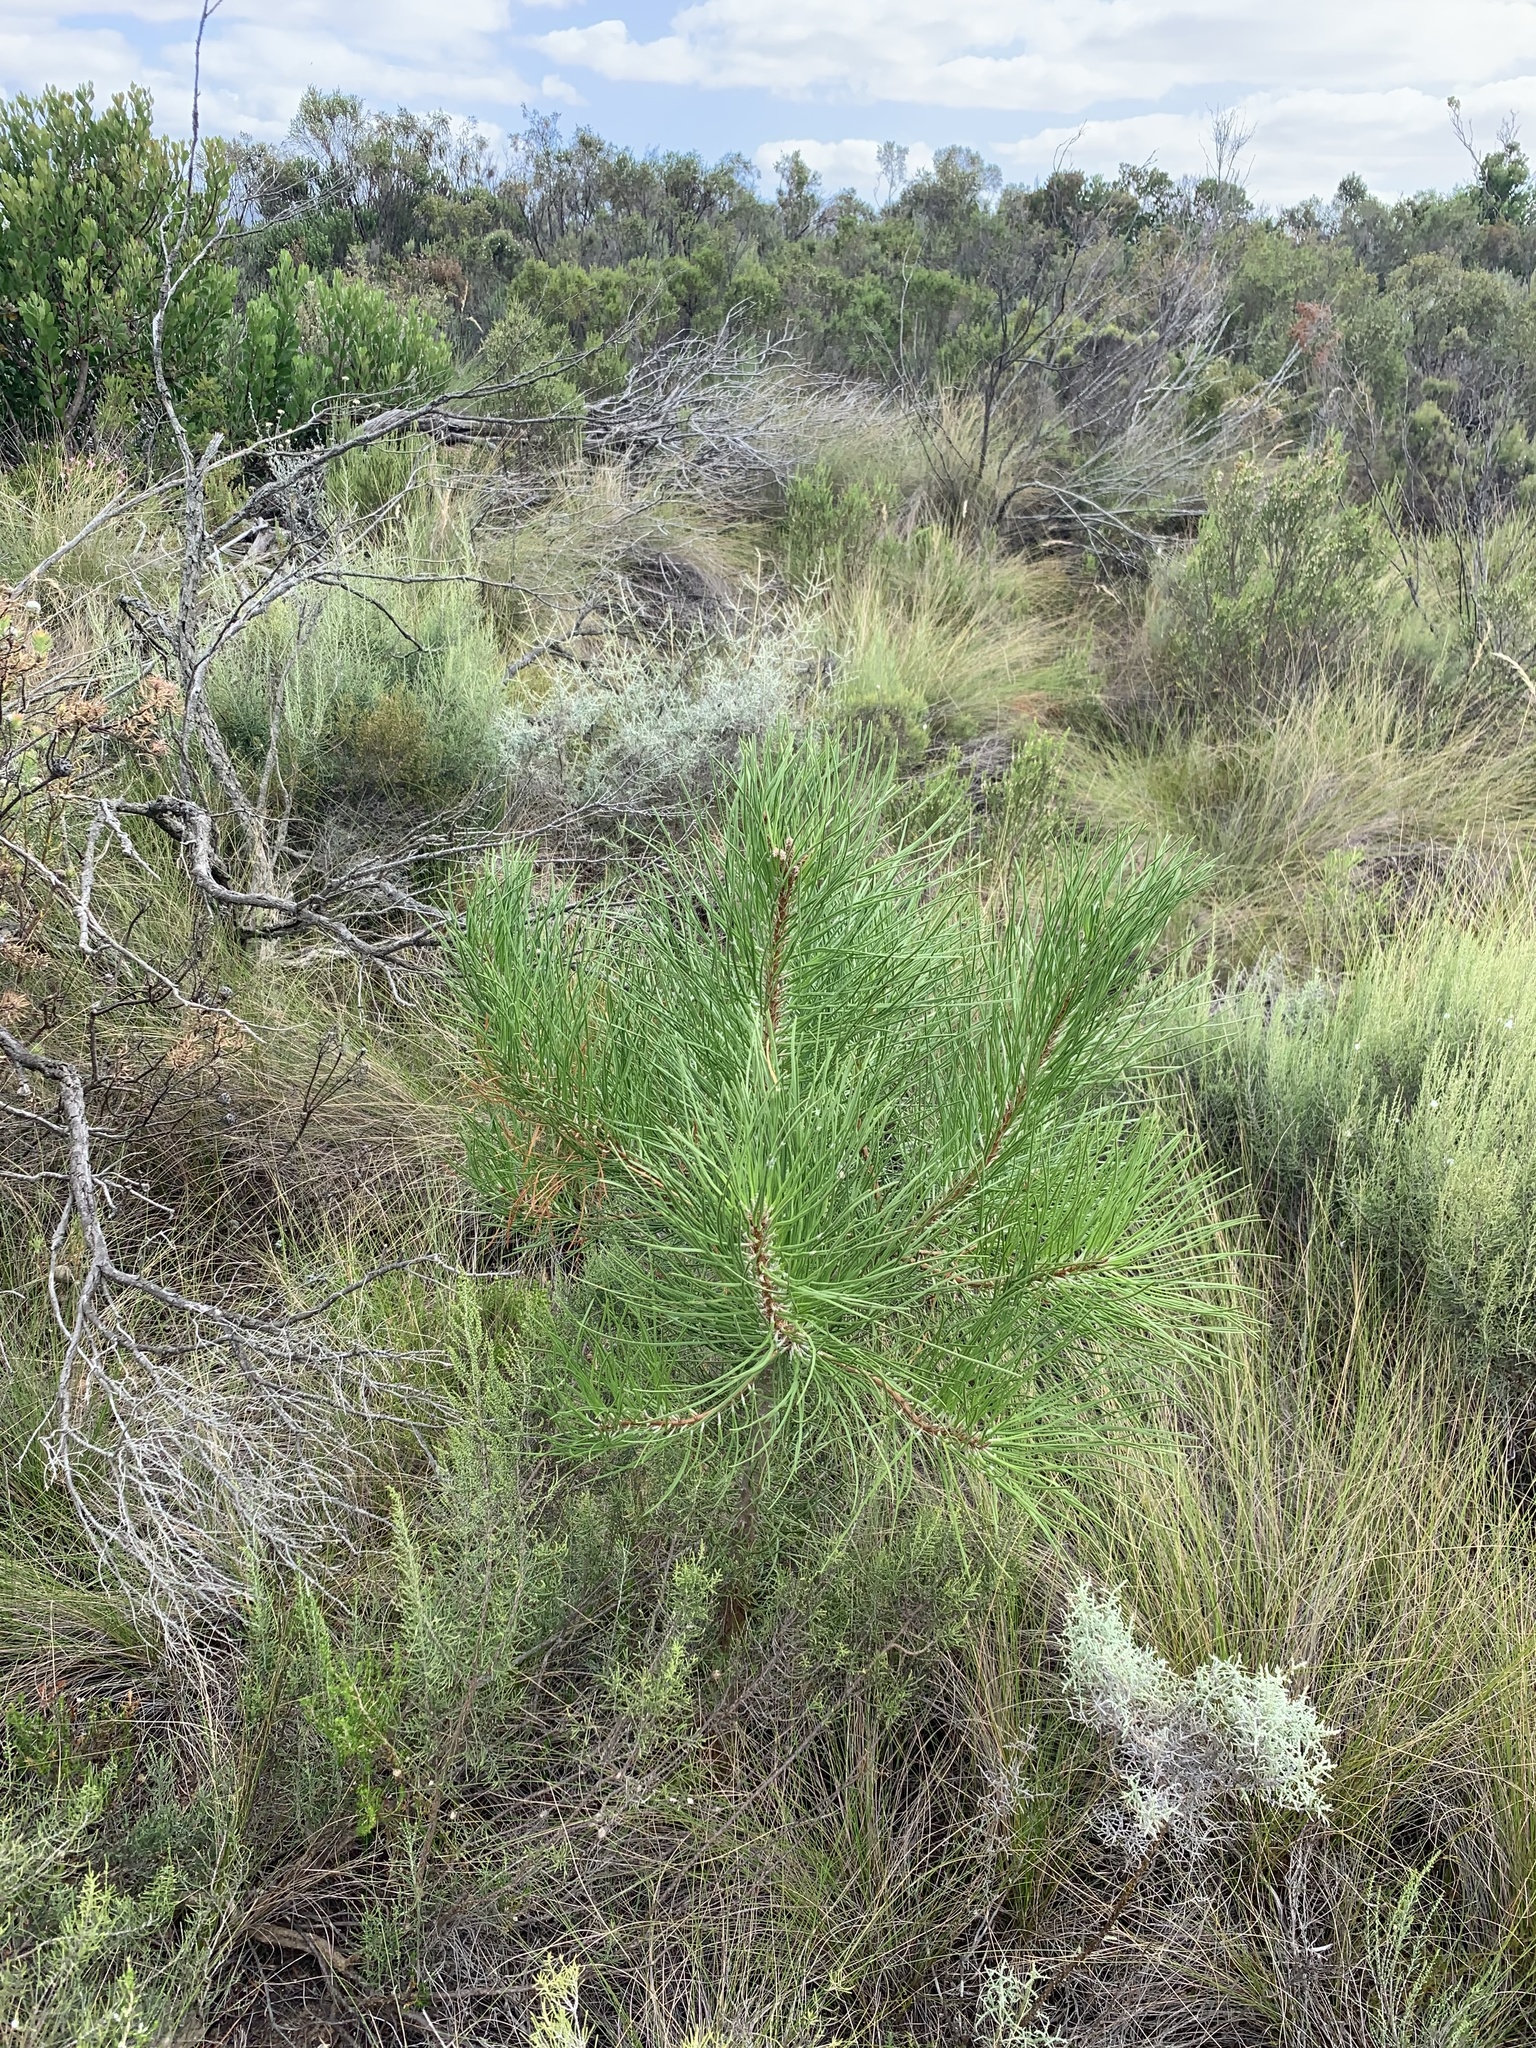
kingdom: Plantae
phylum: Tracheophyta
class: Pinopsida
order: Pinales
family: Pinaceae
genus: Pinus
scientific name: Pinus pinaster
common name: Maritime pine
